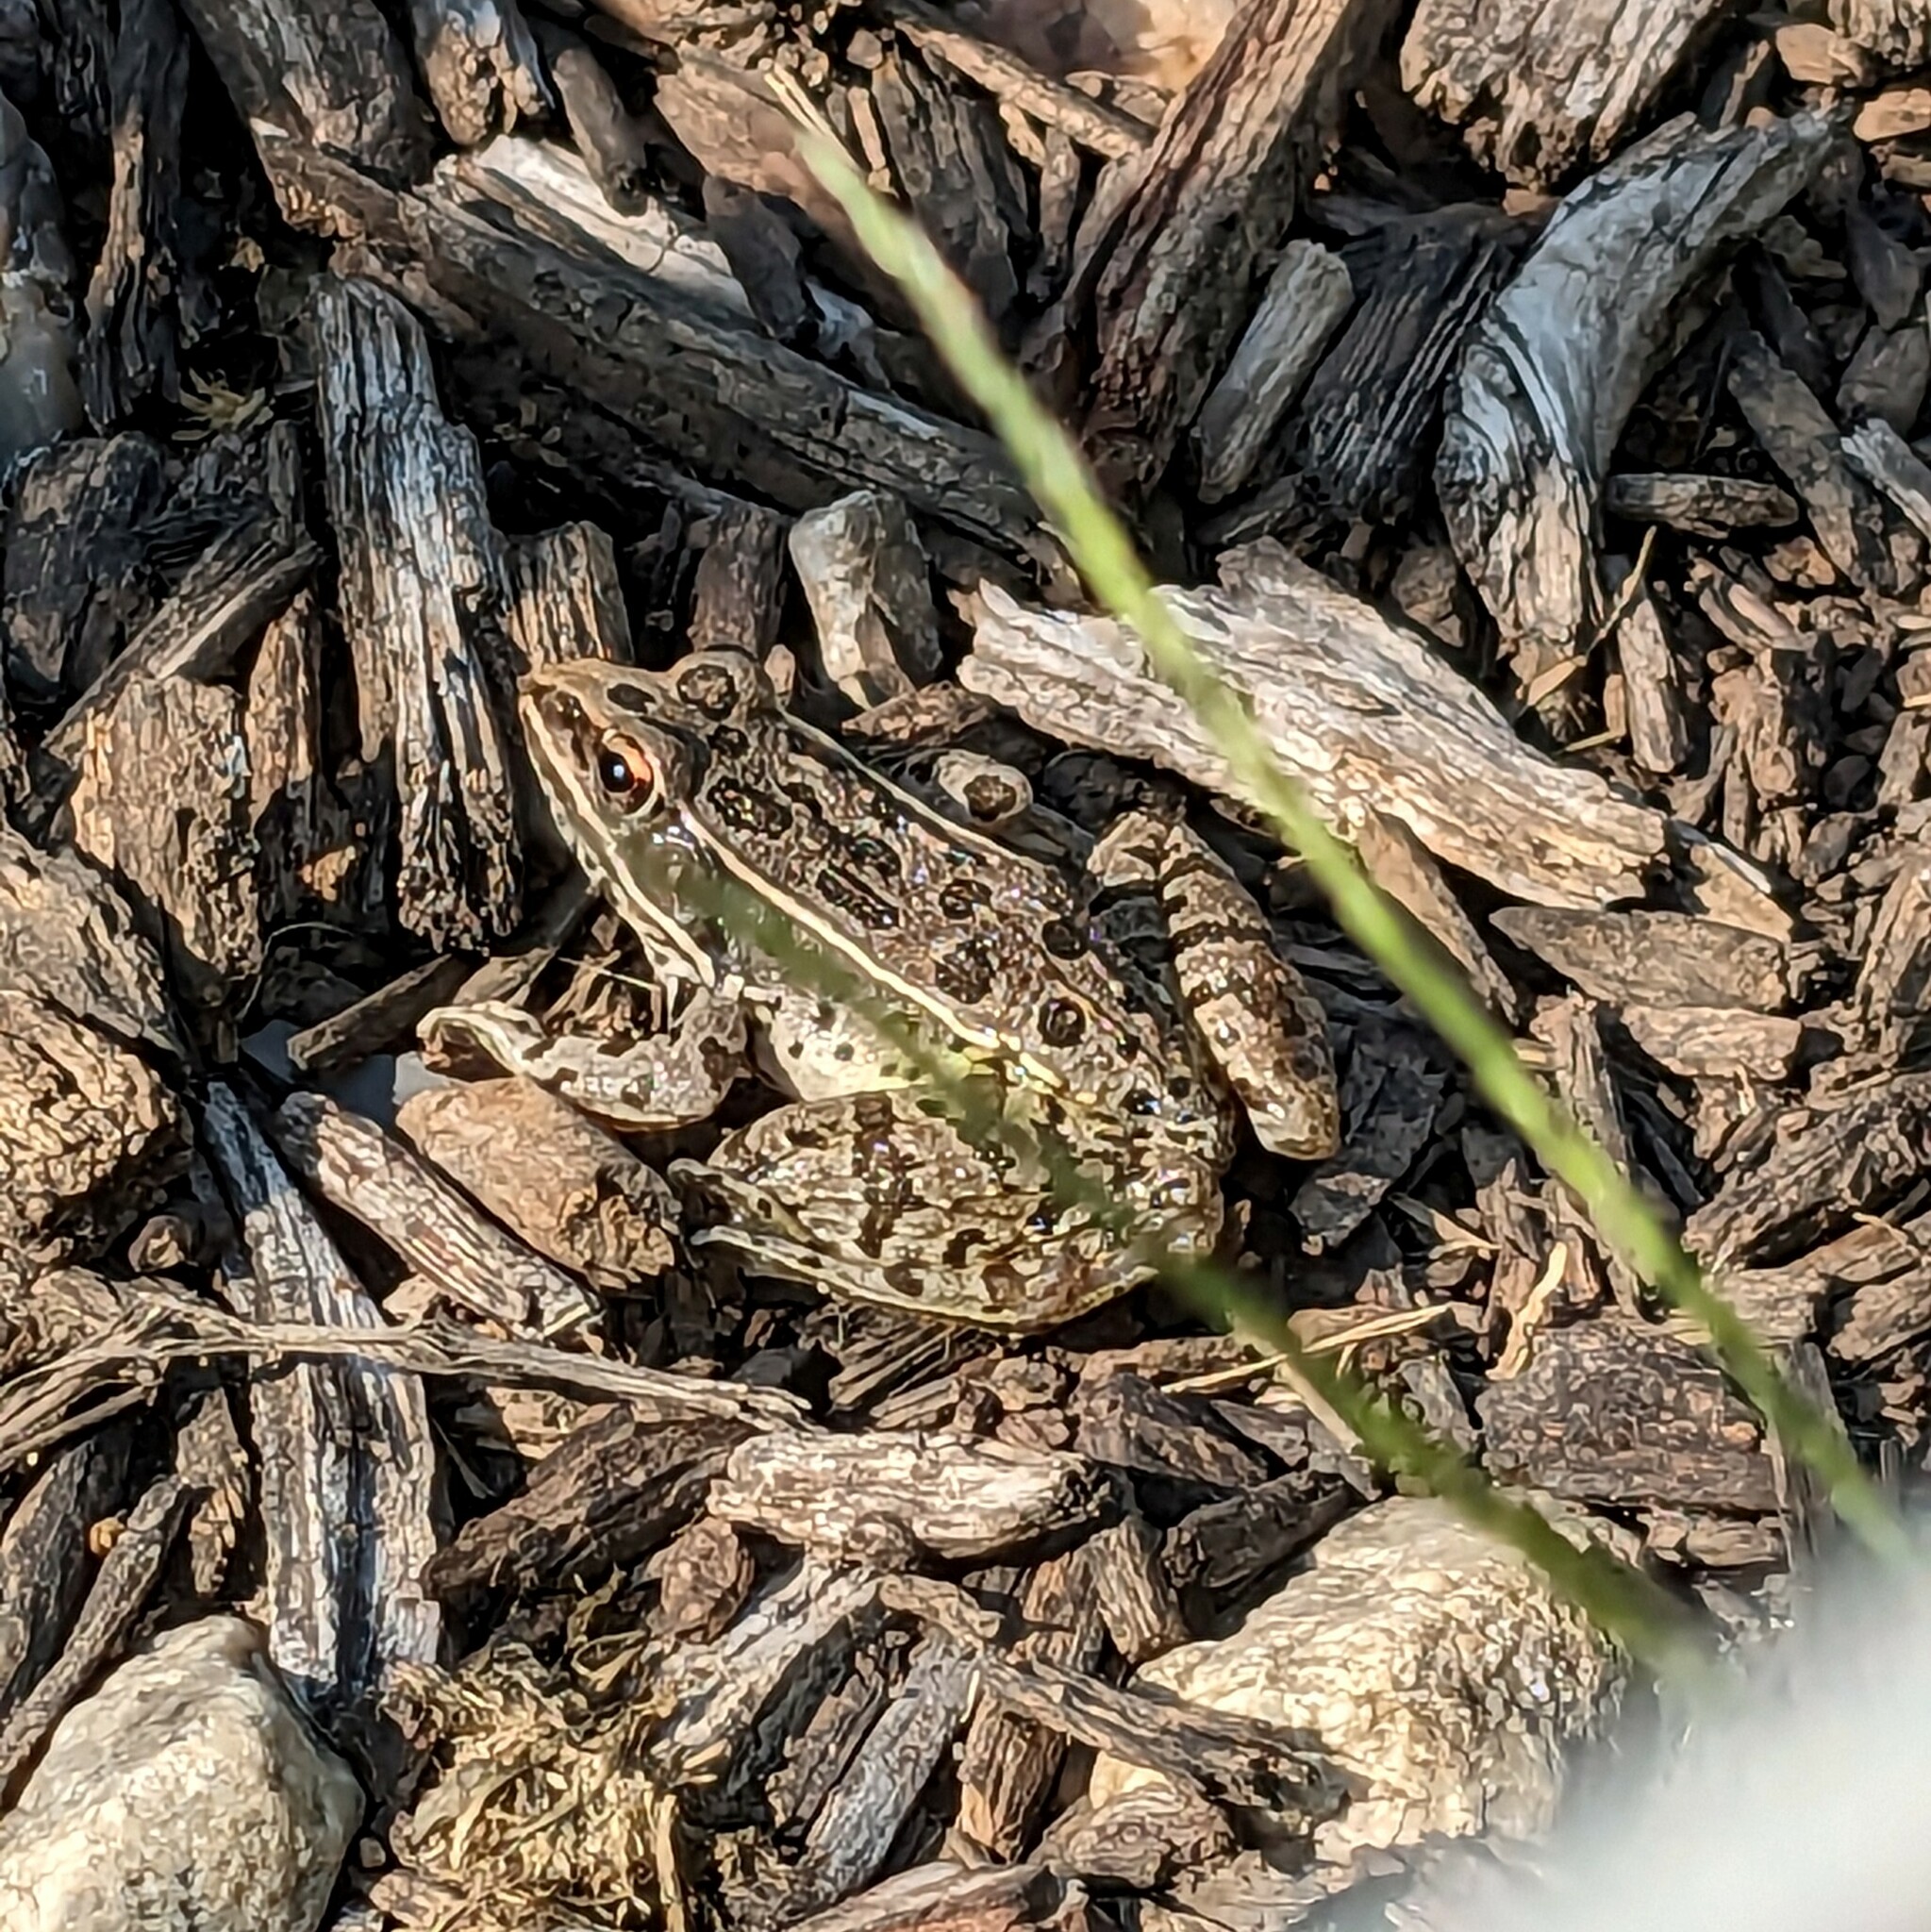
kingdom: Animalia
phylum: Chordata
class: Amphibia
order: Anura
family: Ranidae
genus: Lithobates
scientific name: Lithobates blairi
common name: Plains leopard frog
